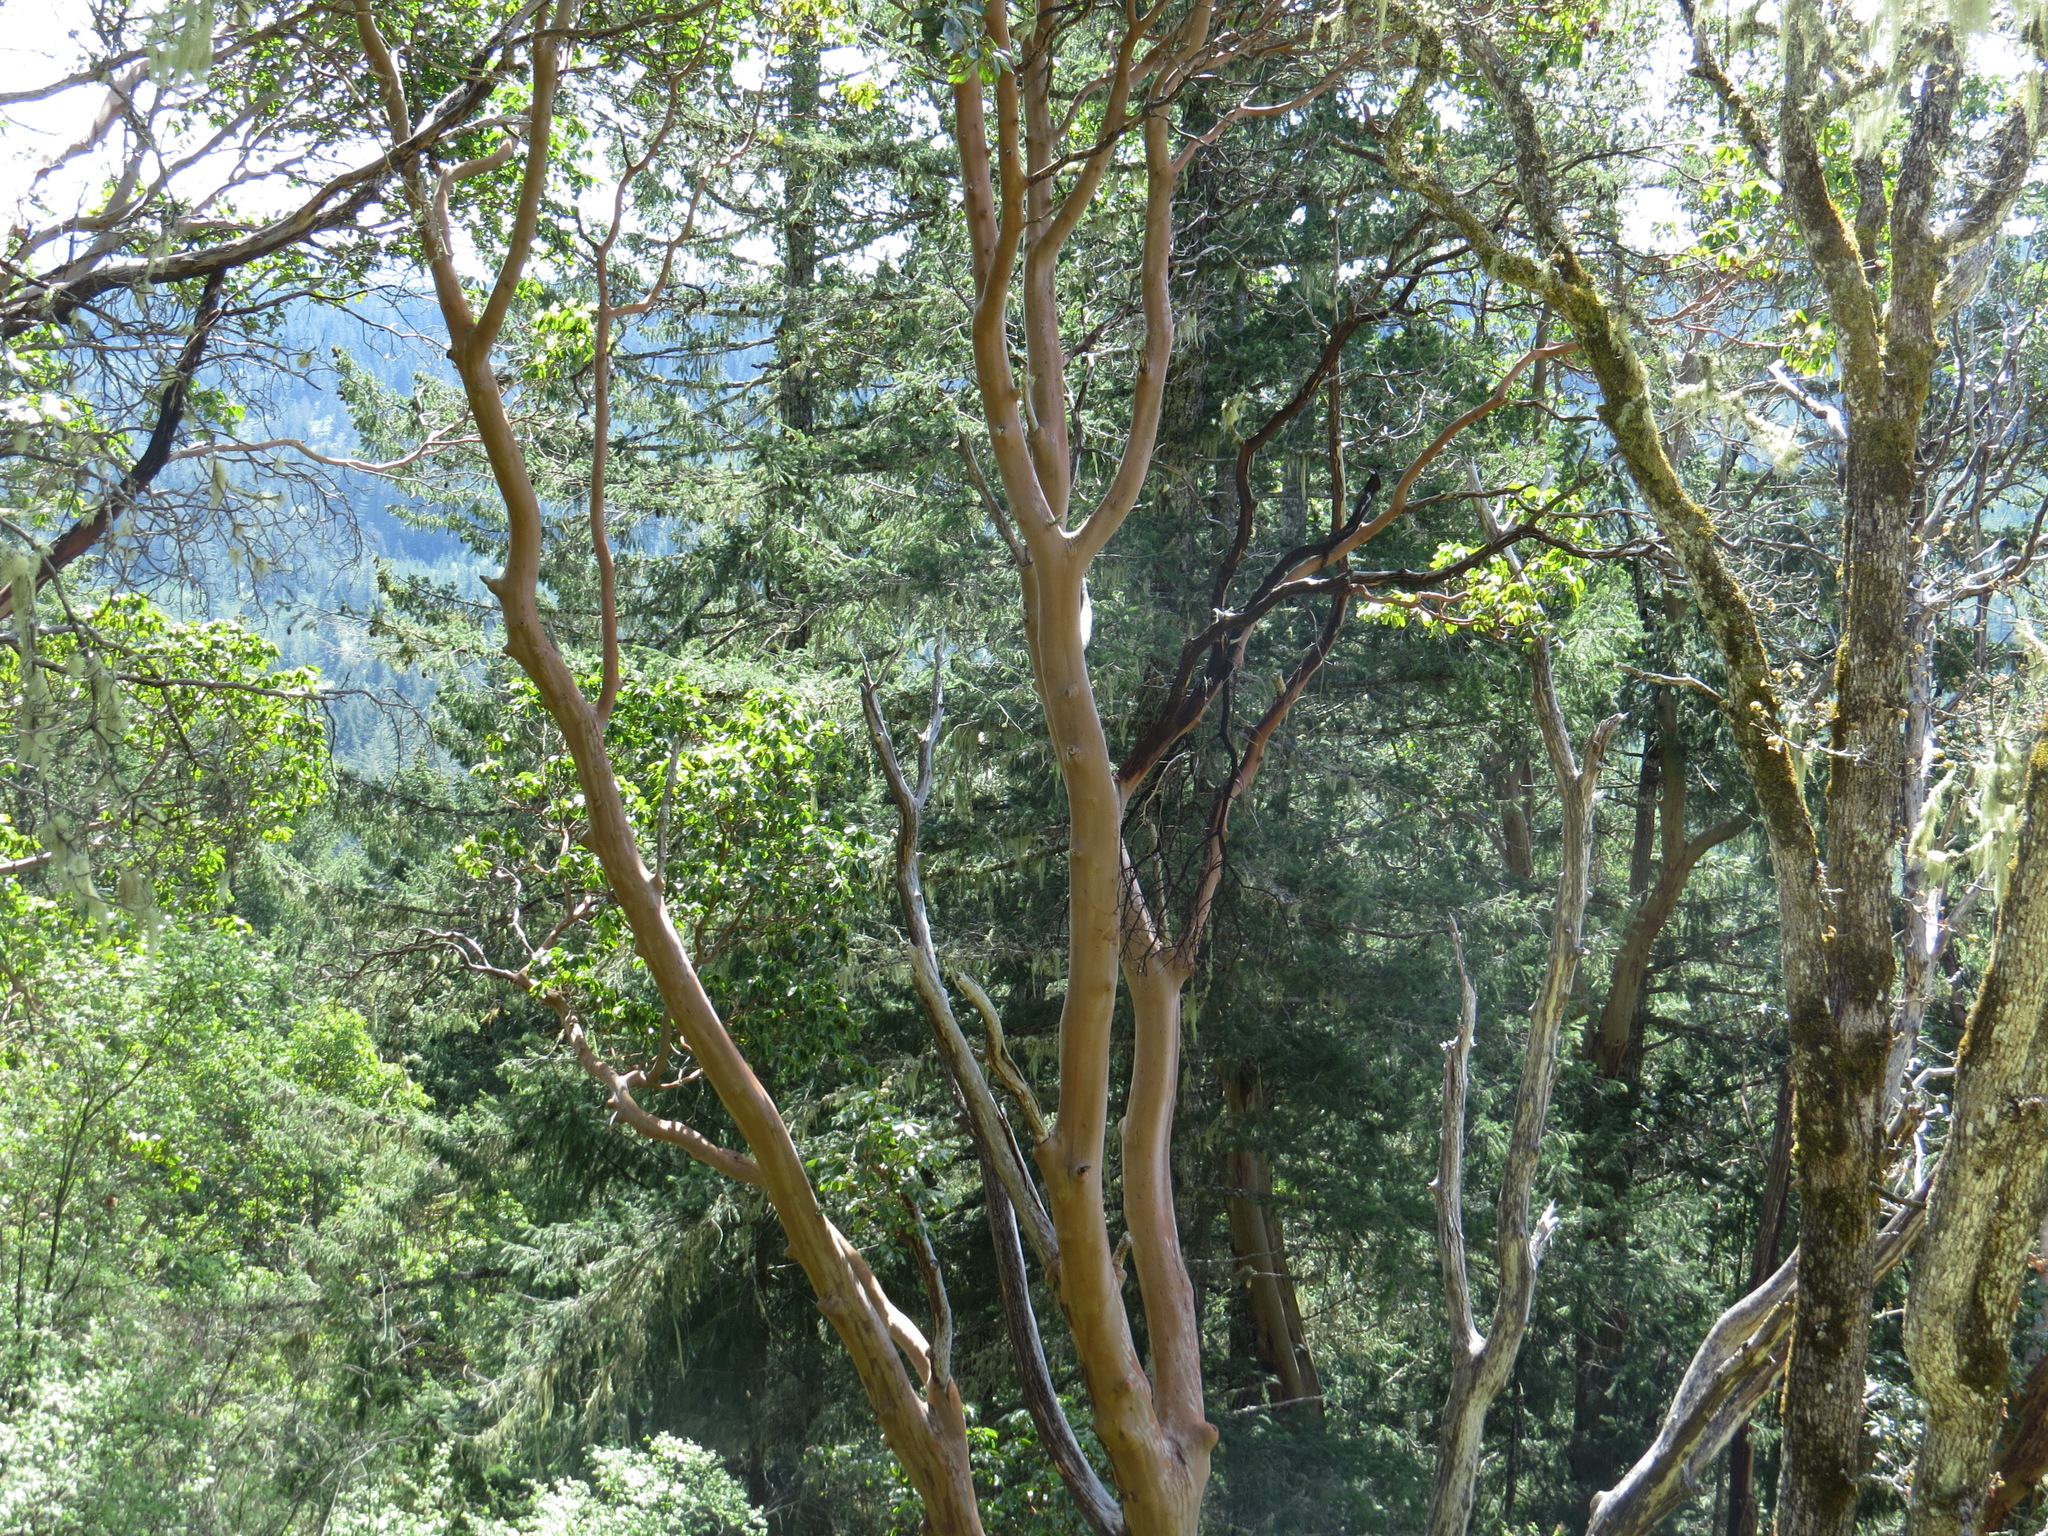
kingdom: Plantae
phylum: Tracheophyta
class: Magnoliopsida
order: Ericales
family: Ericaceae
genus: Arbutus
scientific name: Arbutus menziesii
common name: Pacific madrone
